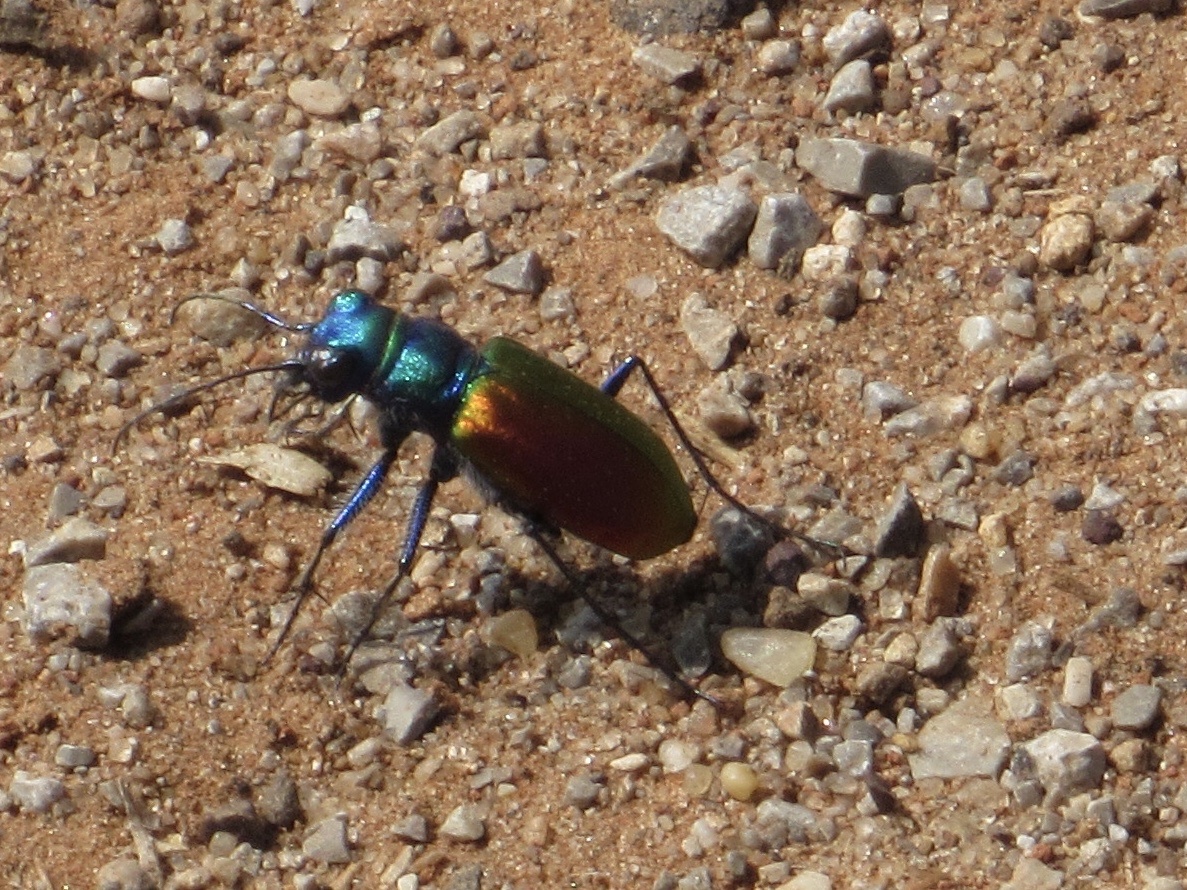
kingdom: Animalia
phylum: Arthropoda
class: Insecta
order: Coleoptera
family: Carabidae
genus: Cicindela
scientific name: Cicindela scutellaris
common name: Festive tiger beetle
